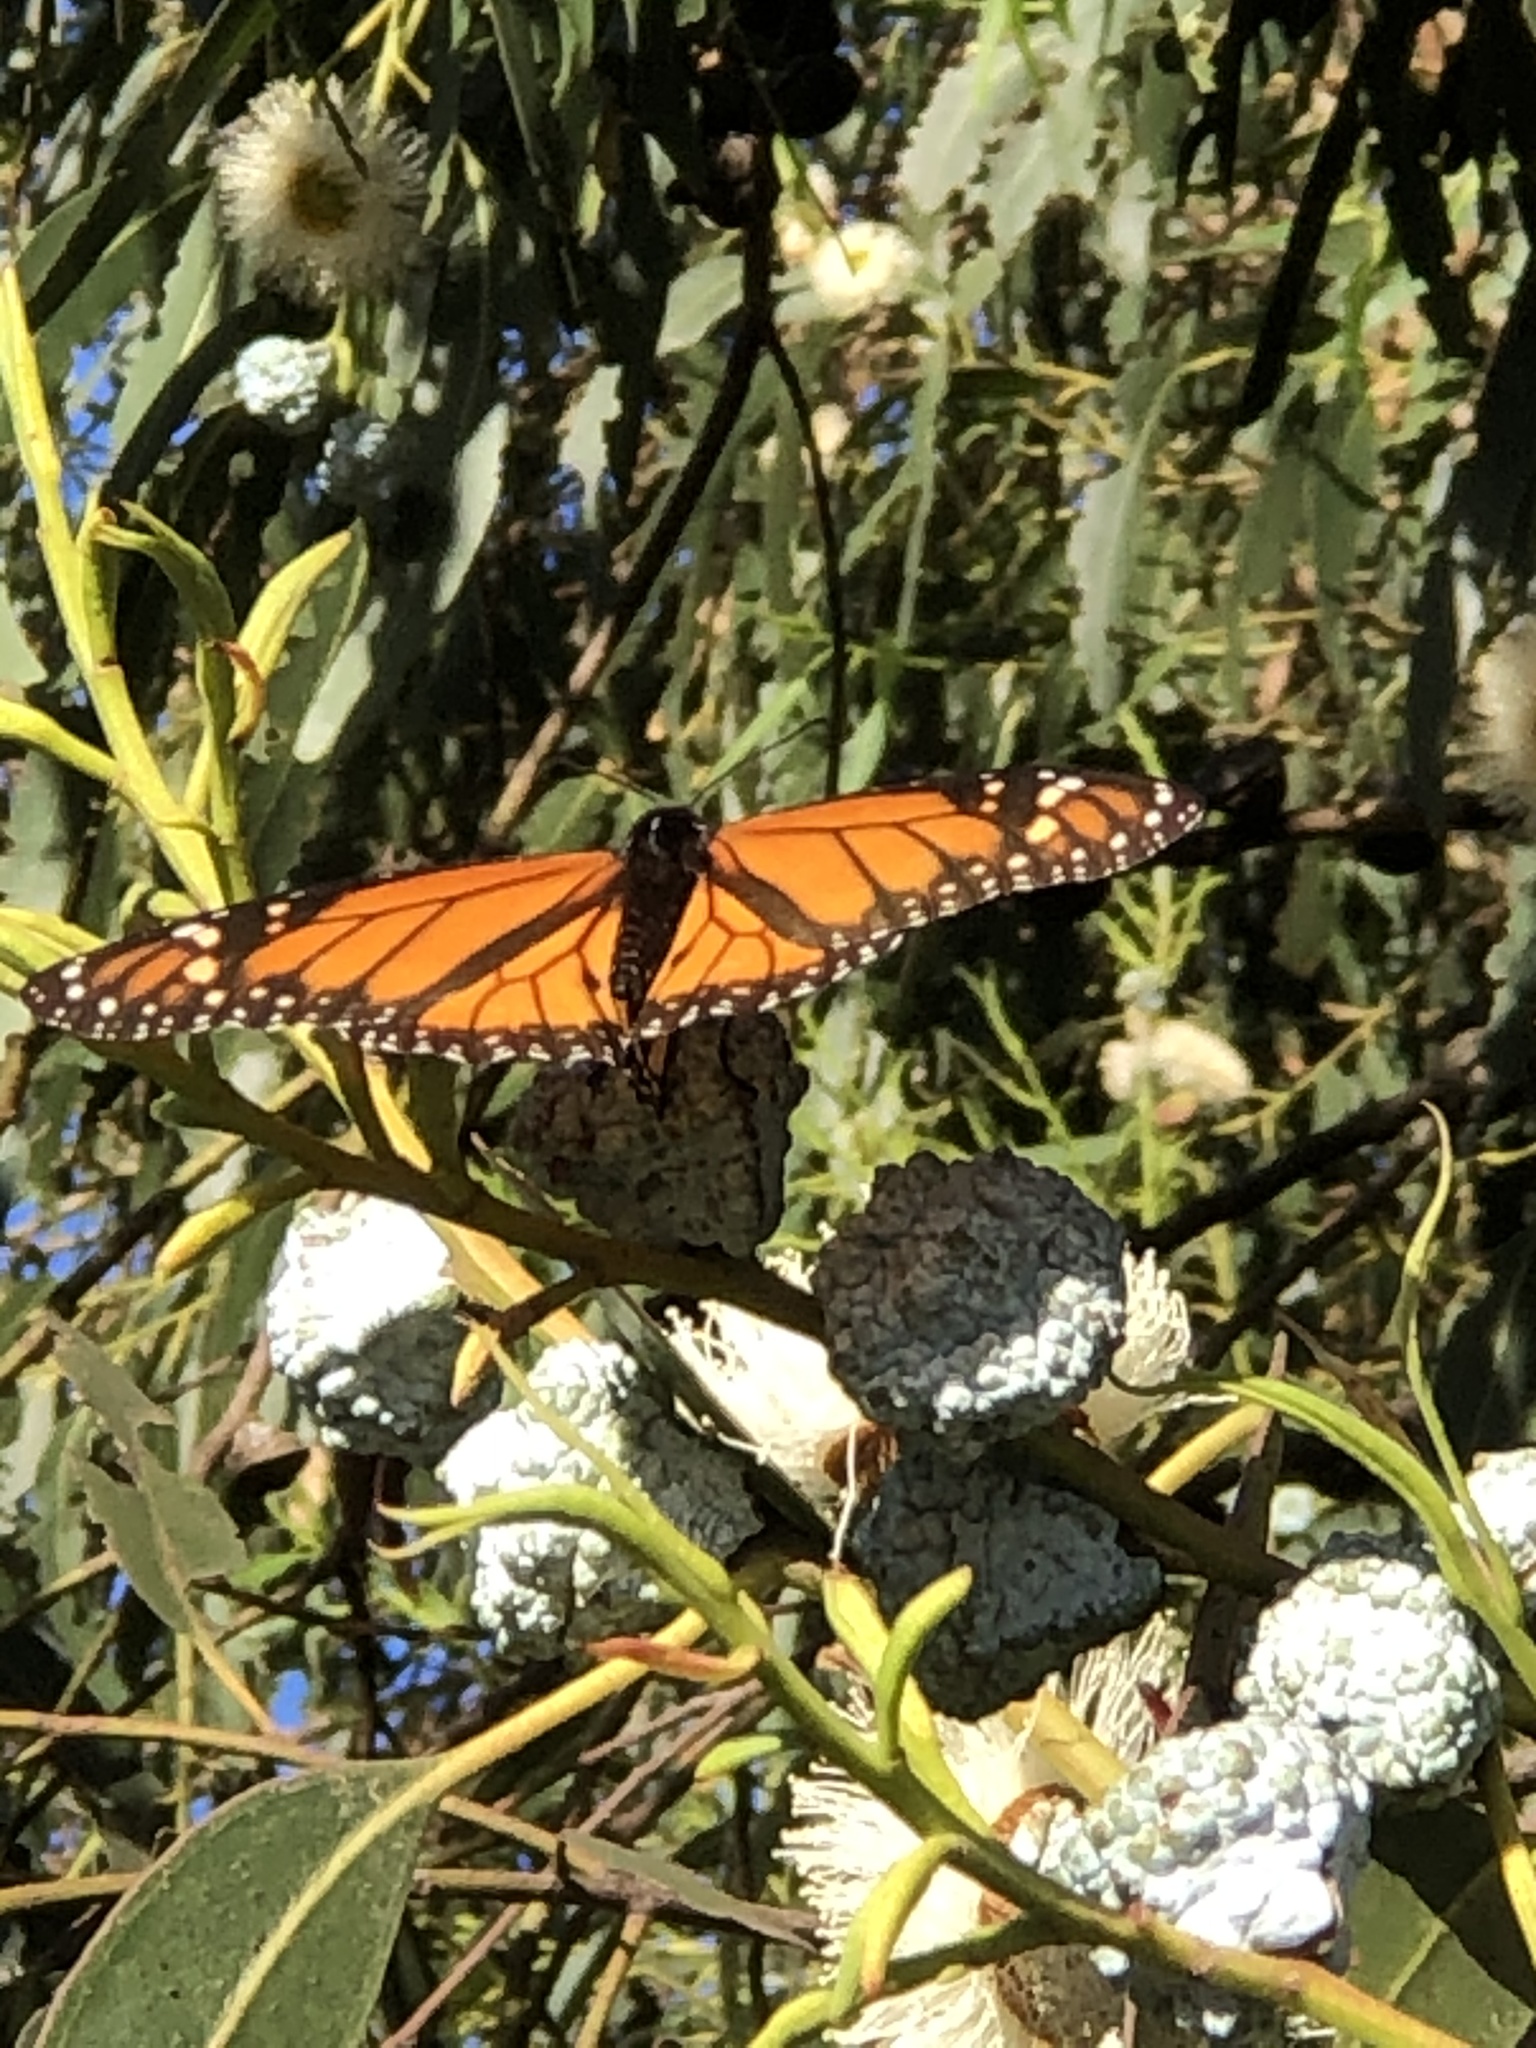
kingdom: Animalia
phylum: Arthropoda
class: Insecta
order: Lepidoptera
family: Nymphalidae
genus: Danaus
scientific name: Danaus plexippus
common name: Monarch
